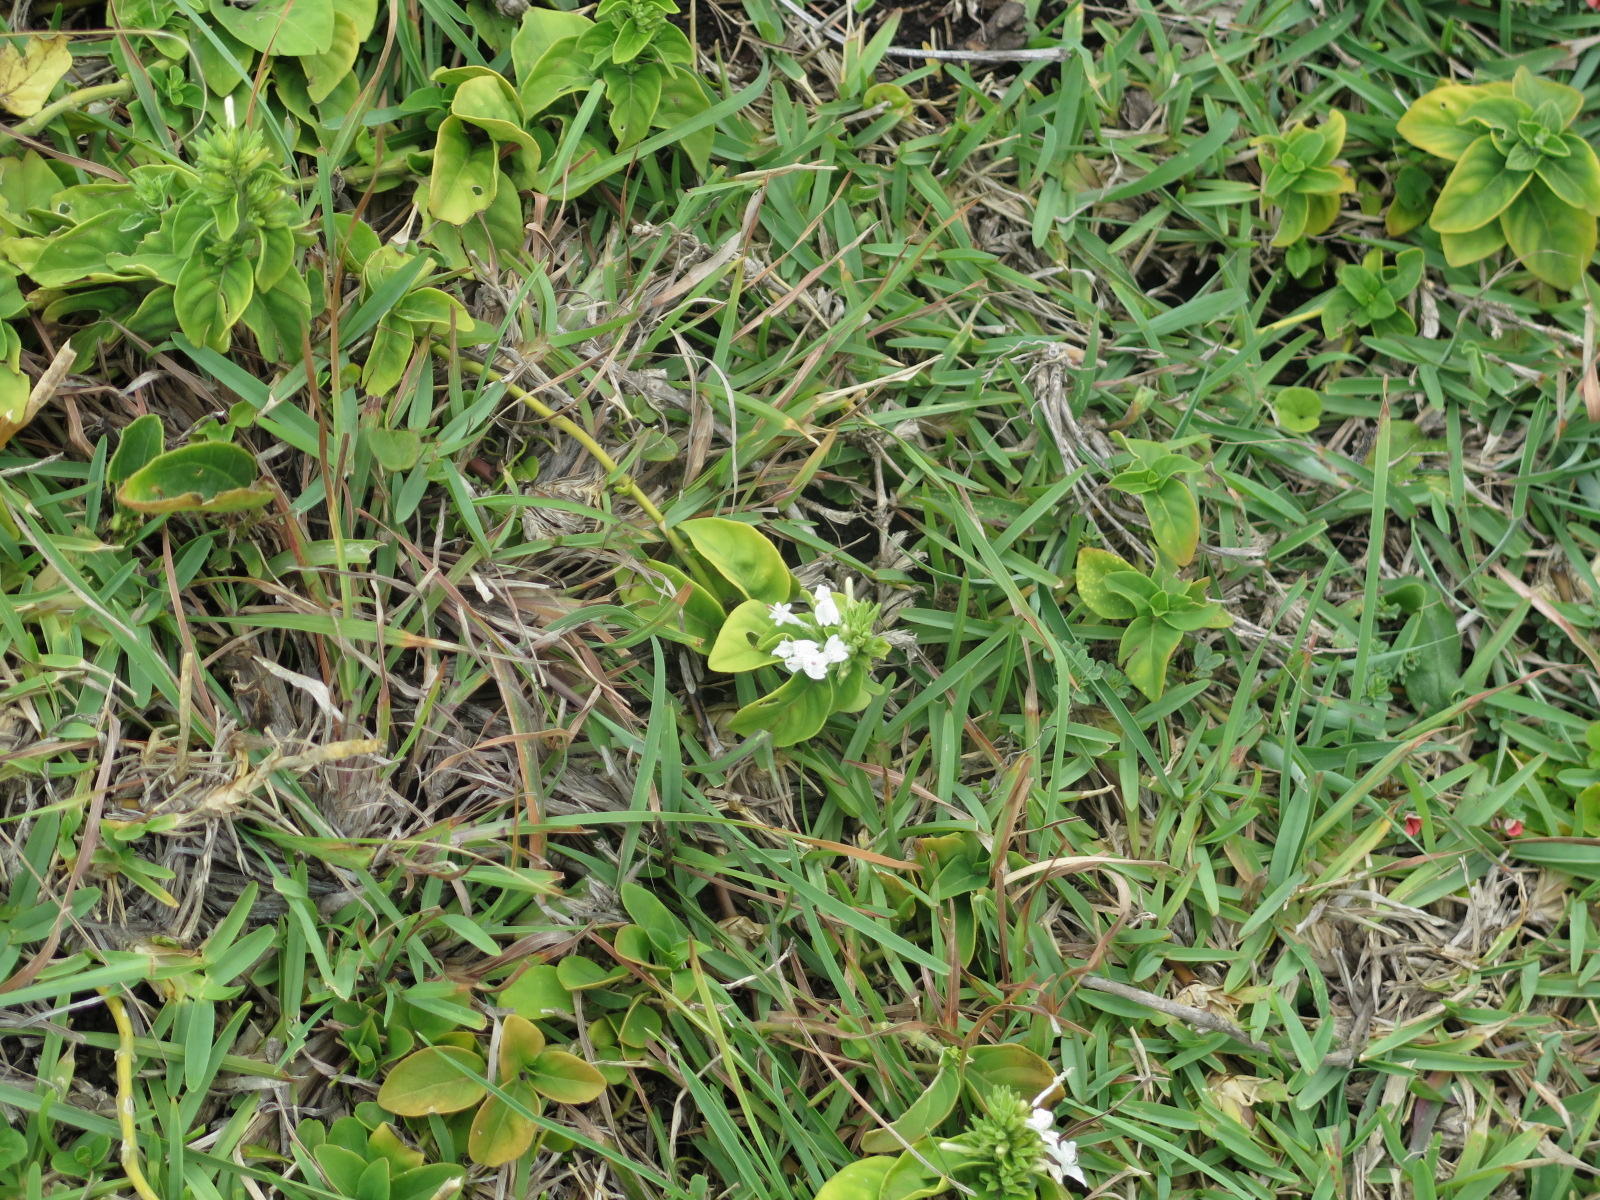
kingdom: Plantae
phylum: Tracheophyta
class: Magnoliopsida
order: Lamiales
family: Acanthaceae
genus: Hypoestes
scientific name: Hypoestes forskaolii
